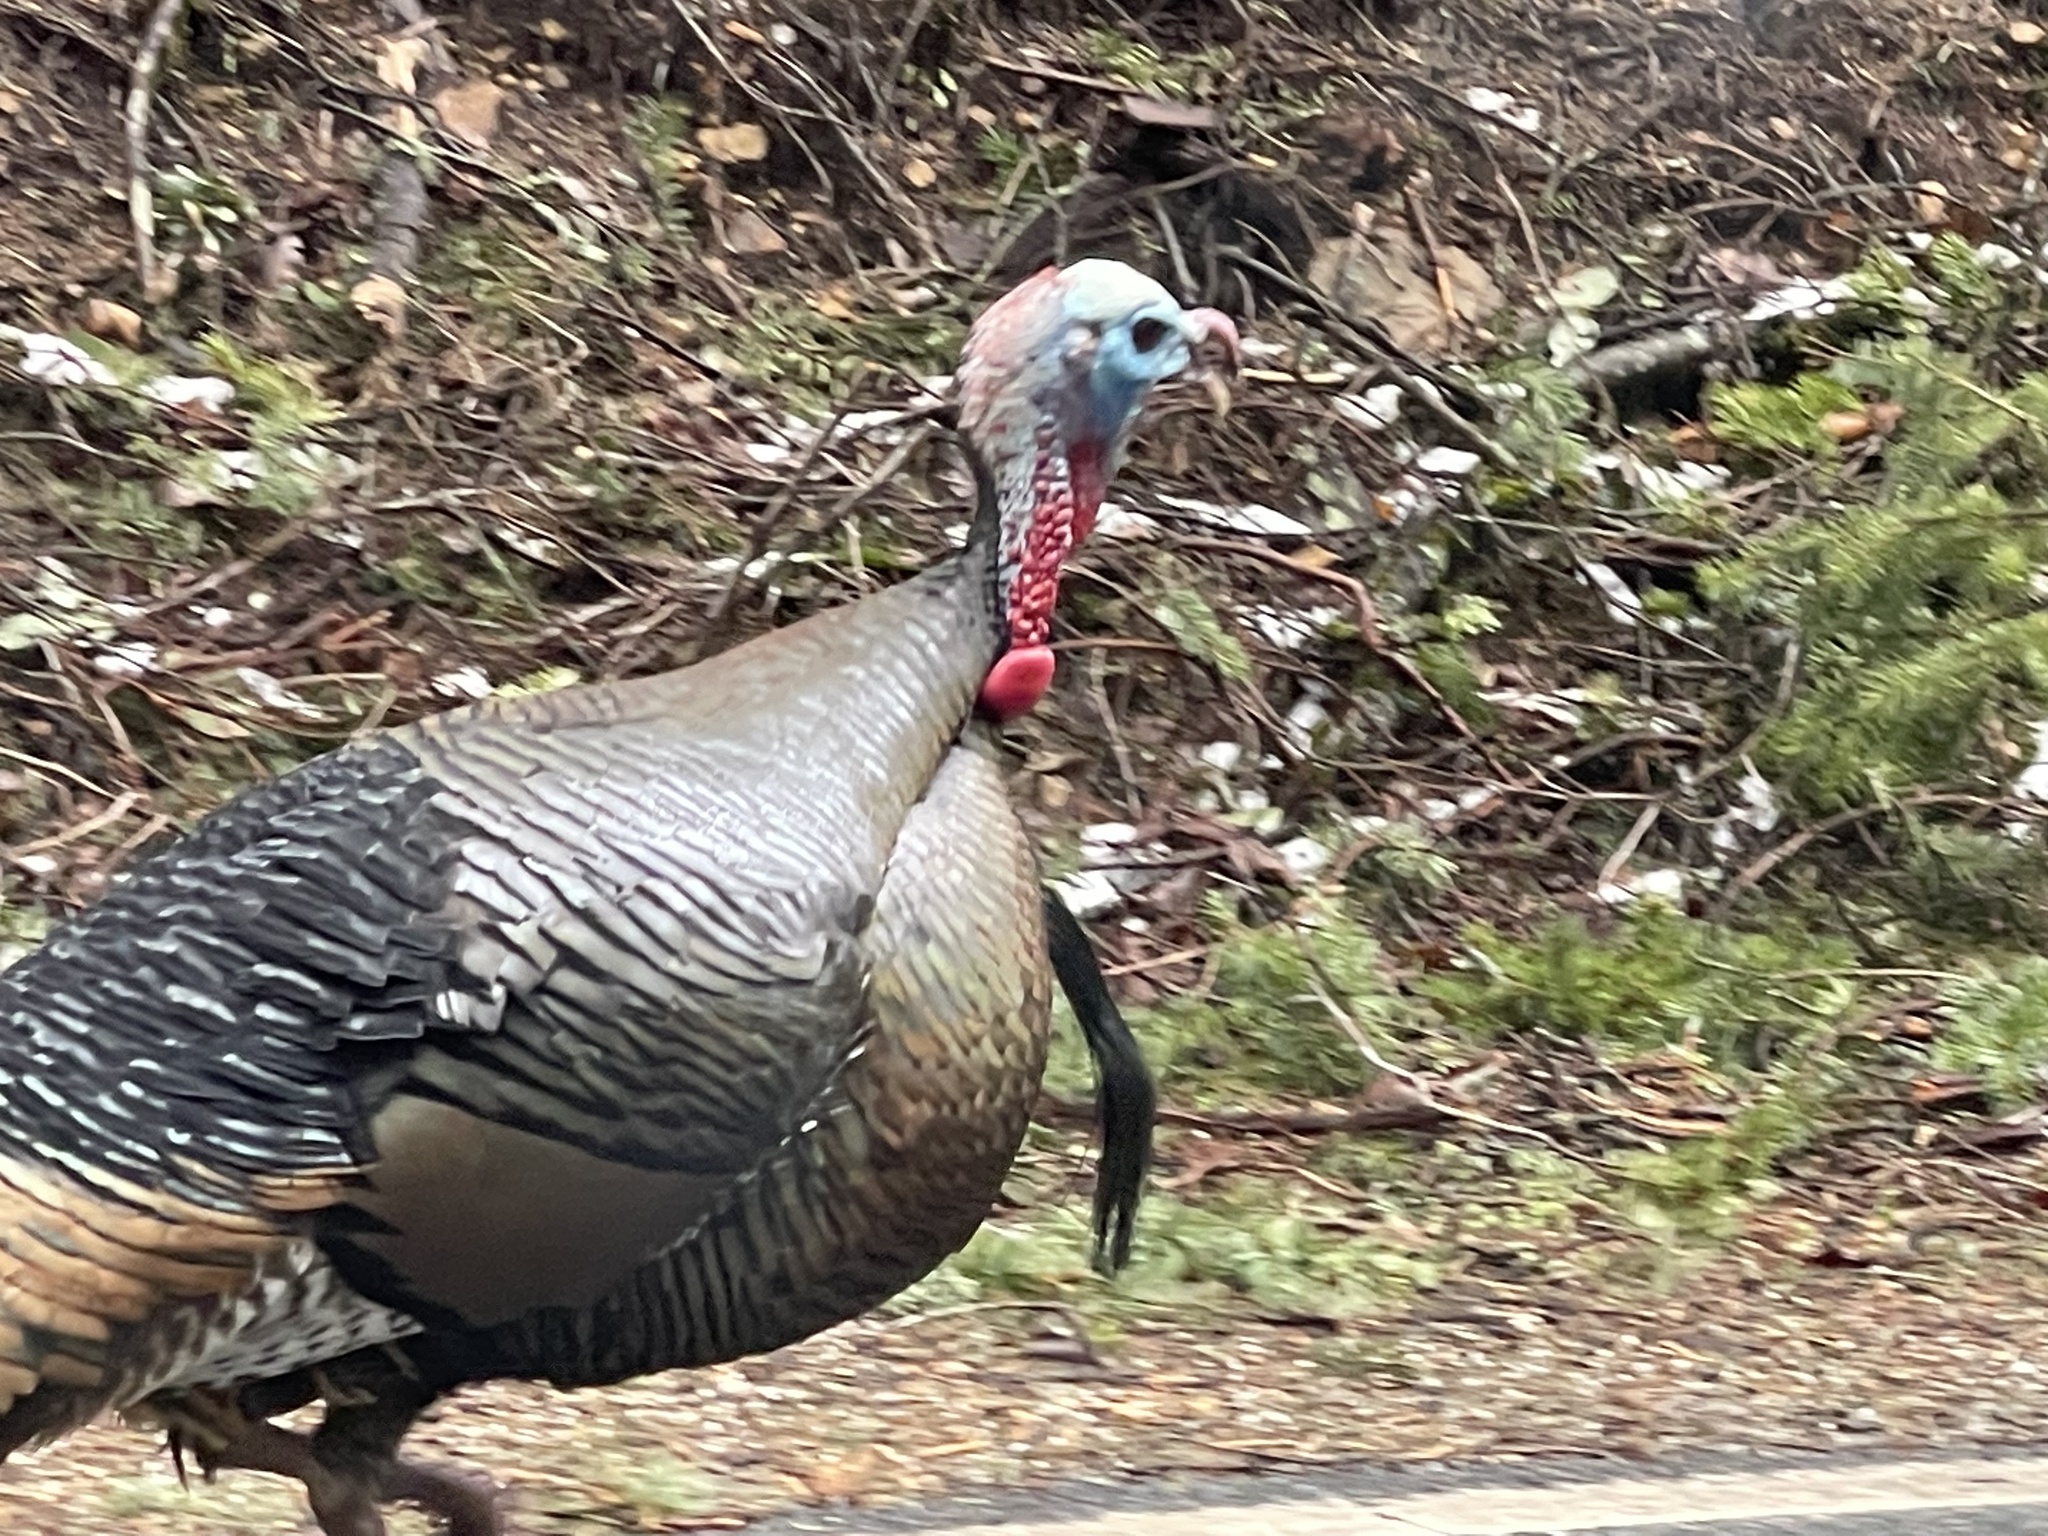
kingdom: Animalia
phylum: Chordata
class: Aves
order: Galliformes
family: Phasianidae
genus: Meleagris
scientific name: Meleagris gallopavo
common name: Wild turkey
